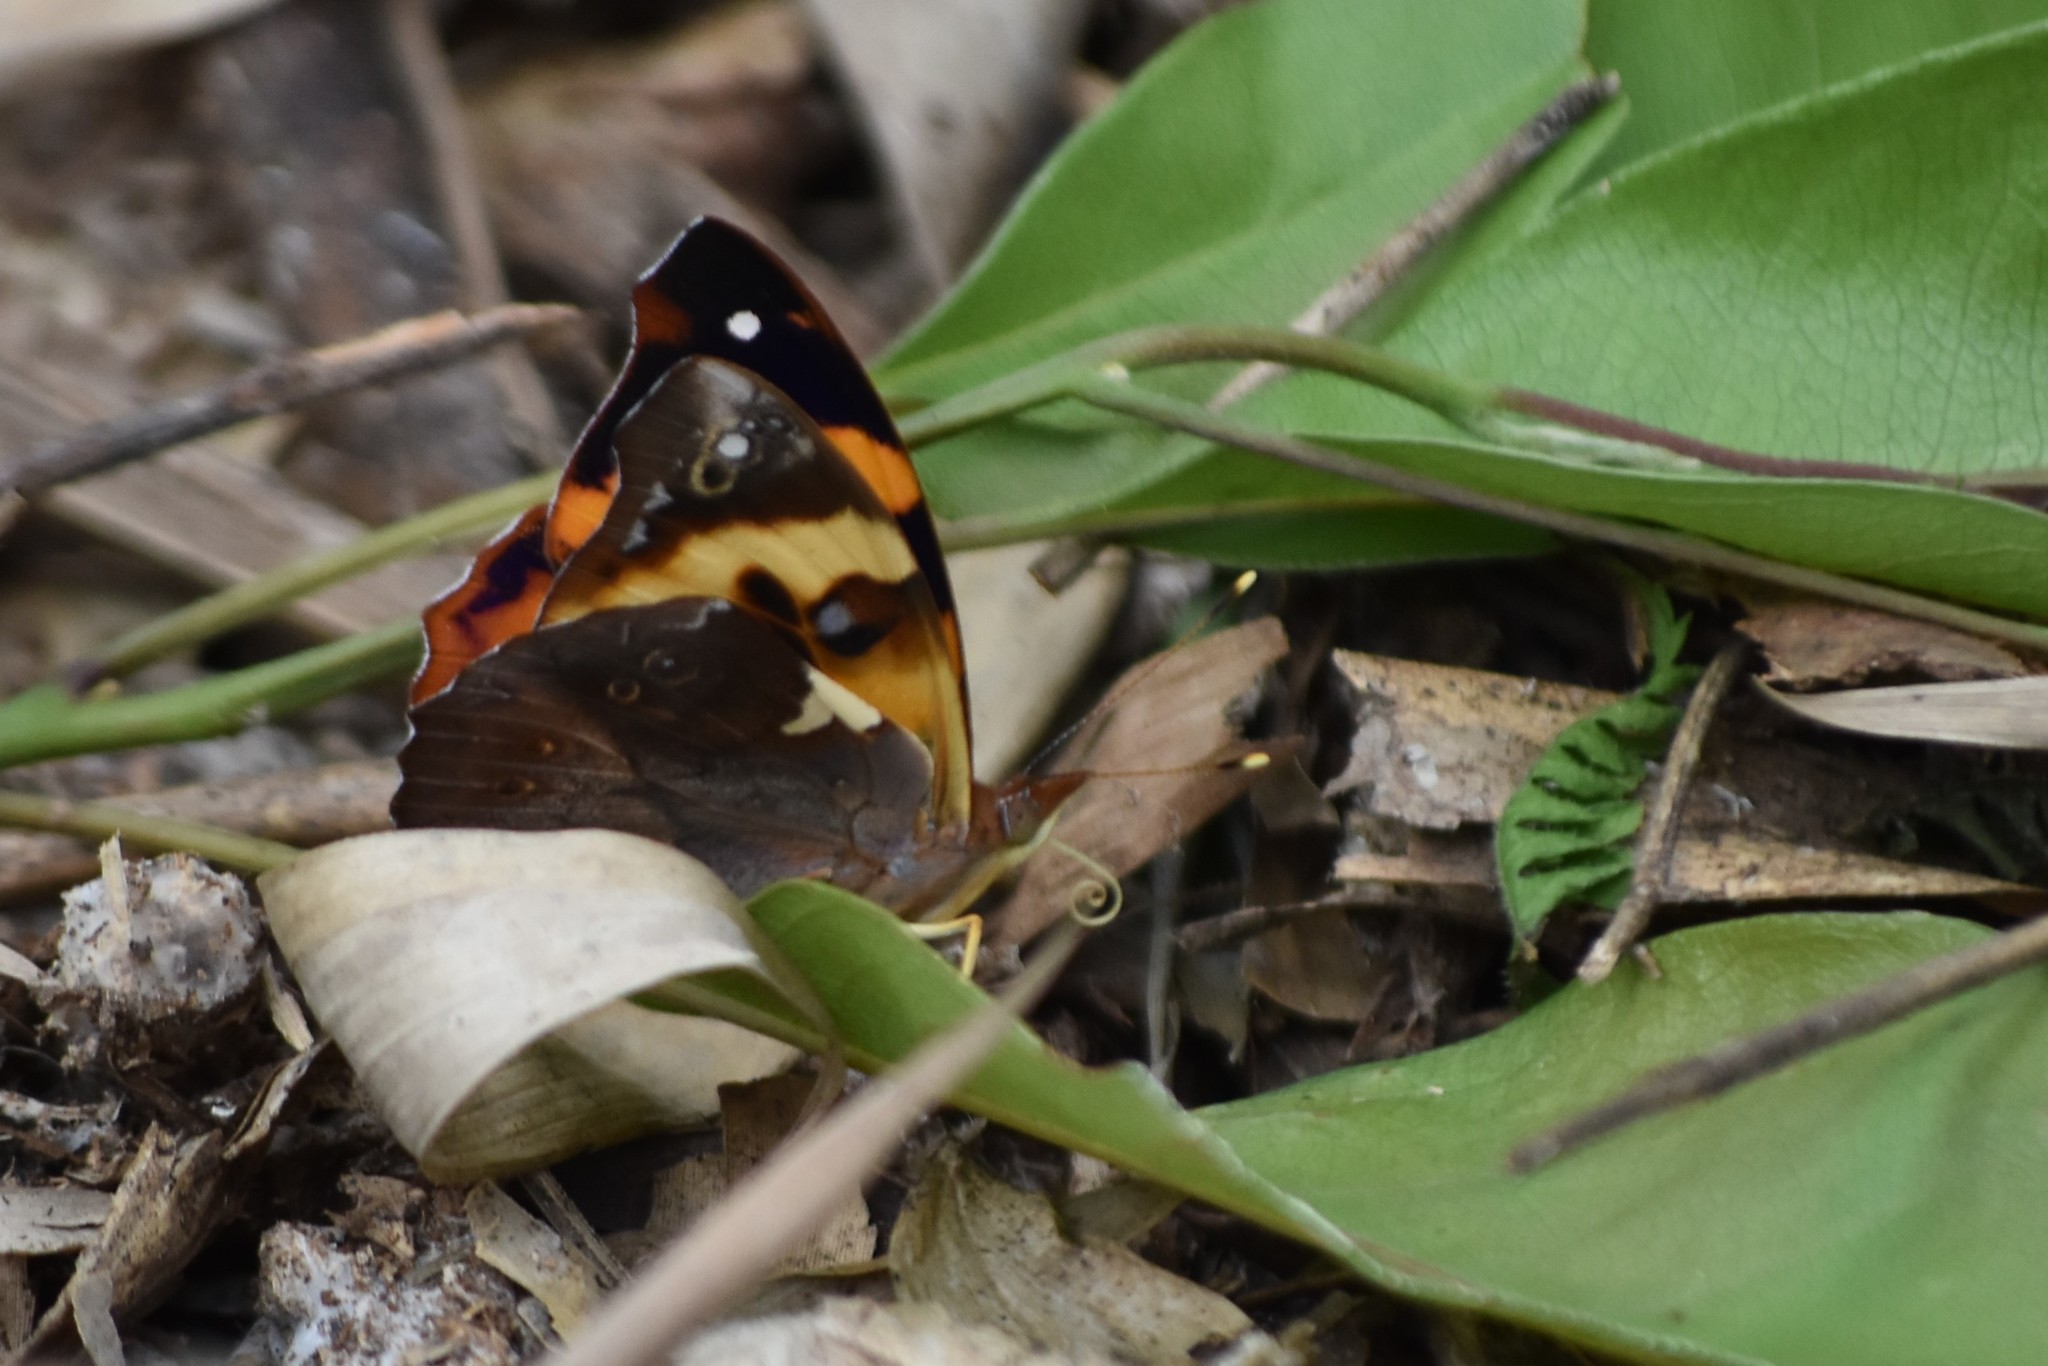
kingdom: Animalia
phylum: Arthropoda
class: Insecta
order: Lepidoptera
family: Nymphalidae
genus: Epiphile
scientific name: Epiphile hubneri
